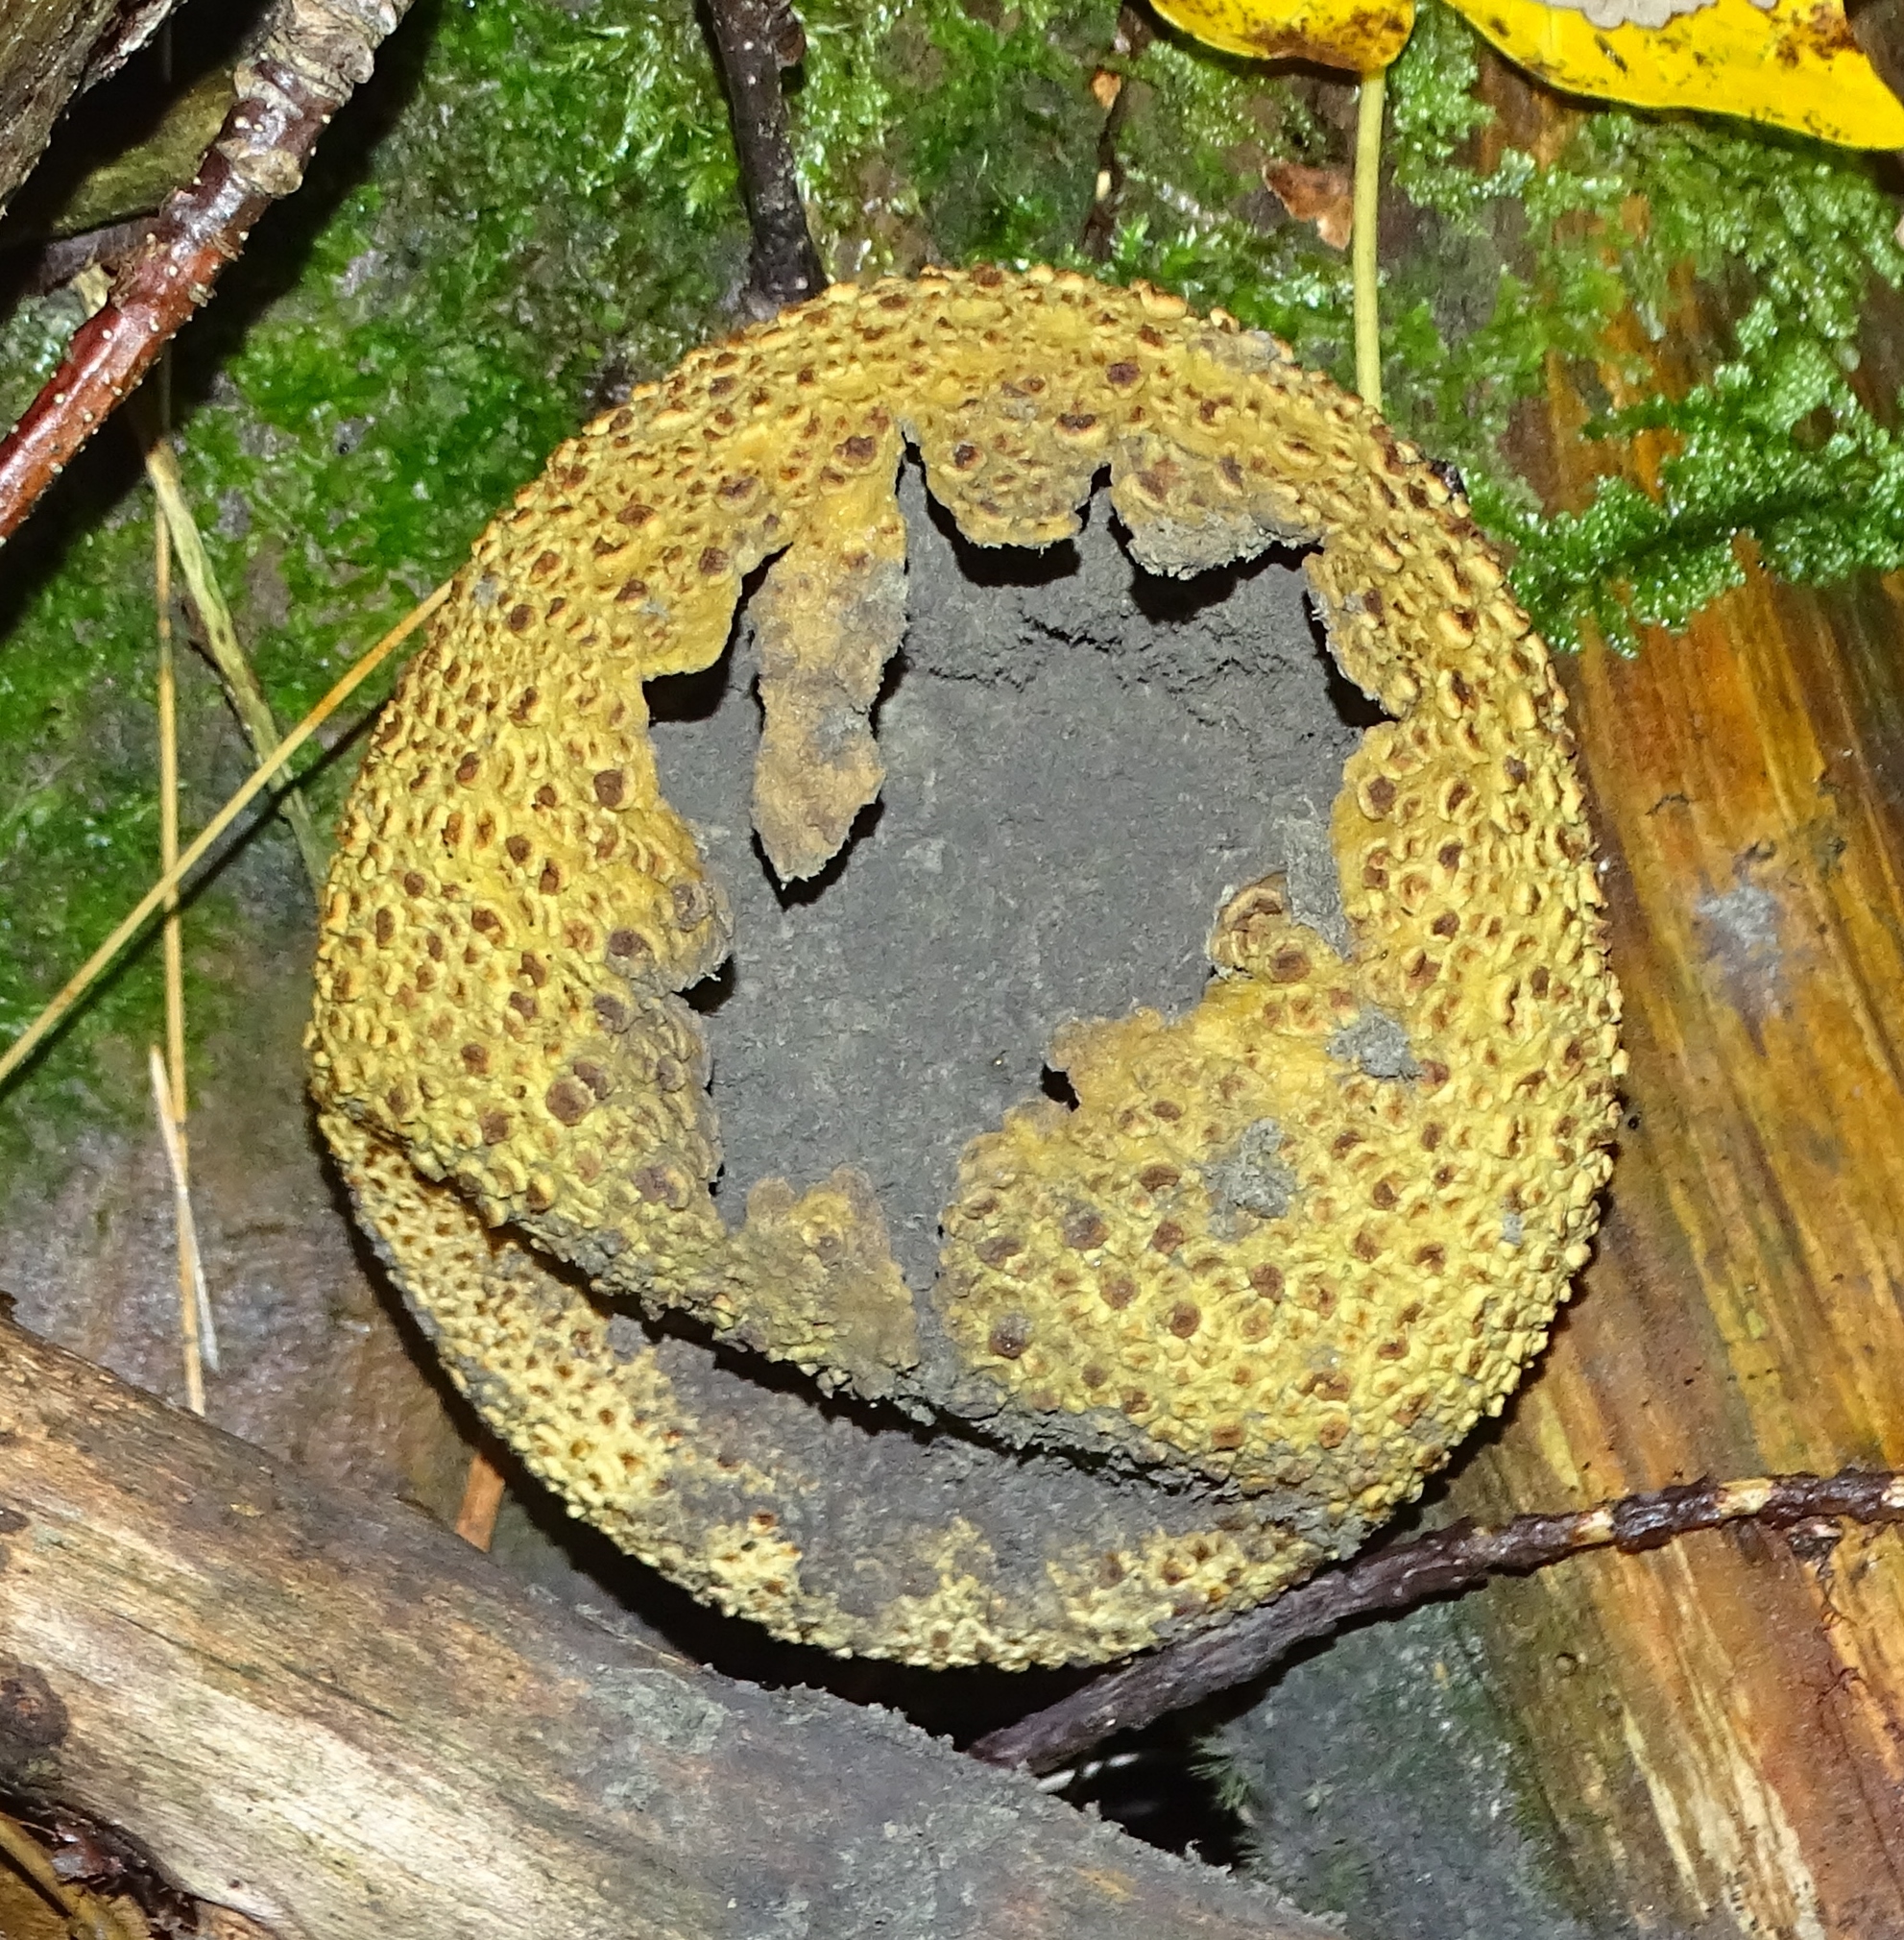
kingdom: Fungi
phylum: Basidiomycota
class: Agaricomycetes
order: Boletales
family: Sclerodermataceae
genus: Scleroderma
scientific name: Scleroderma citrinum
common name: Common earthball
